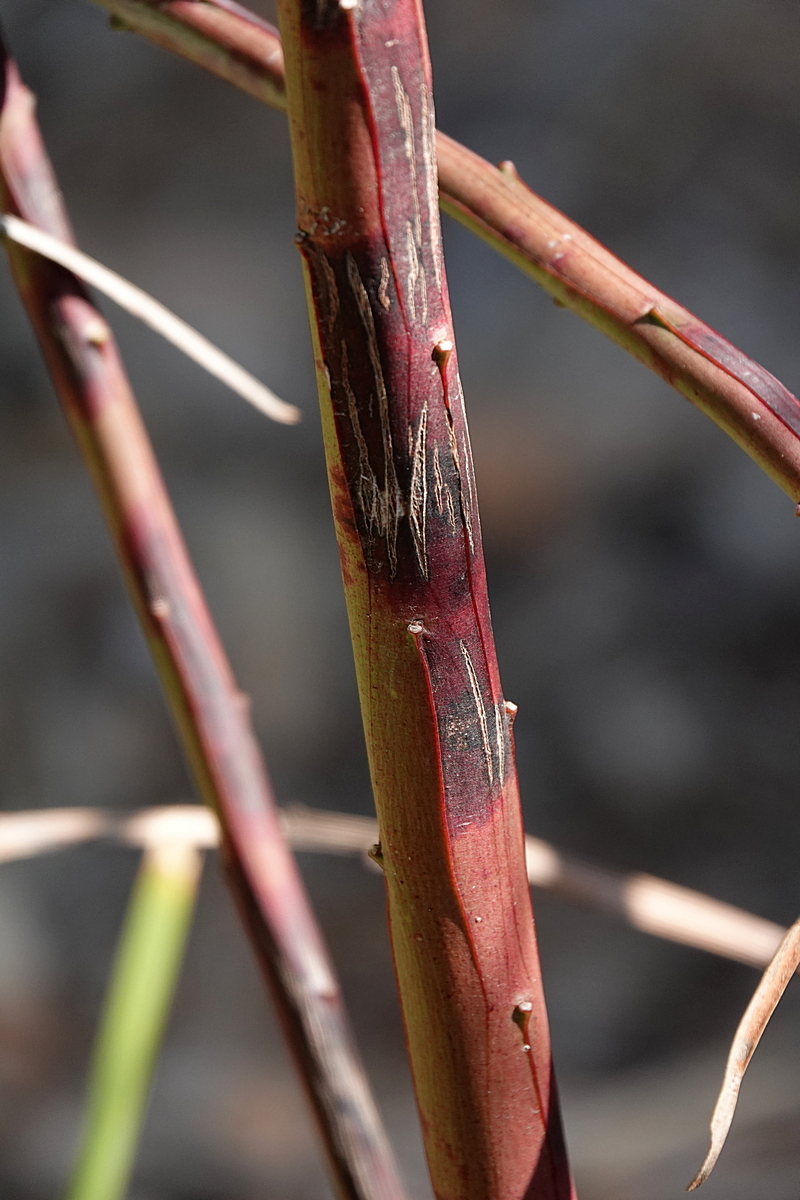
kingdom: Plantae
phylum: Tracheophyta
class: Magnoliopsida
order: Fabales
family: Fabaceae
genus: Acacia
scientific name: Acacia suaveolens
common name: Sweet acacia
